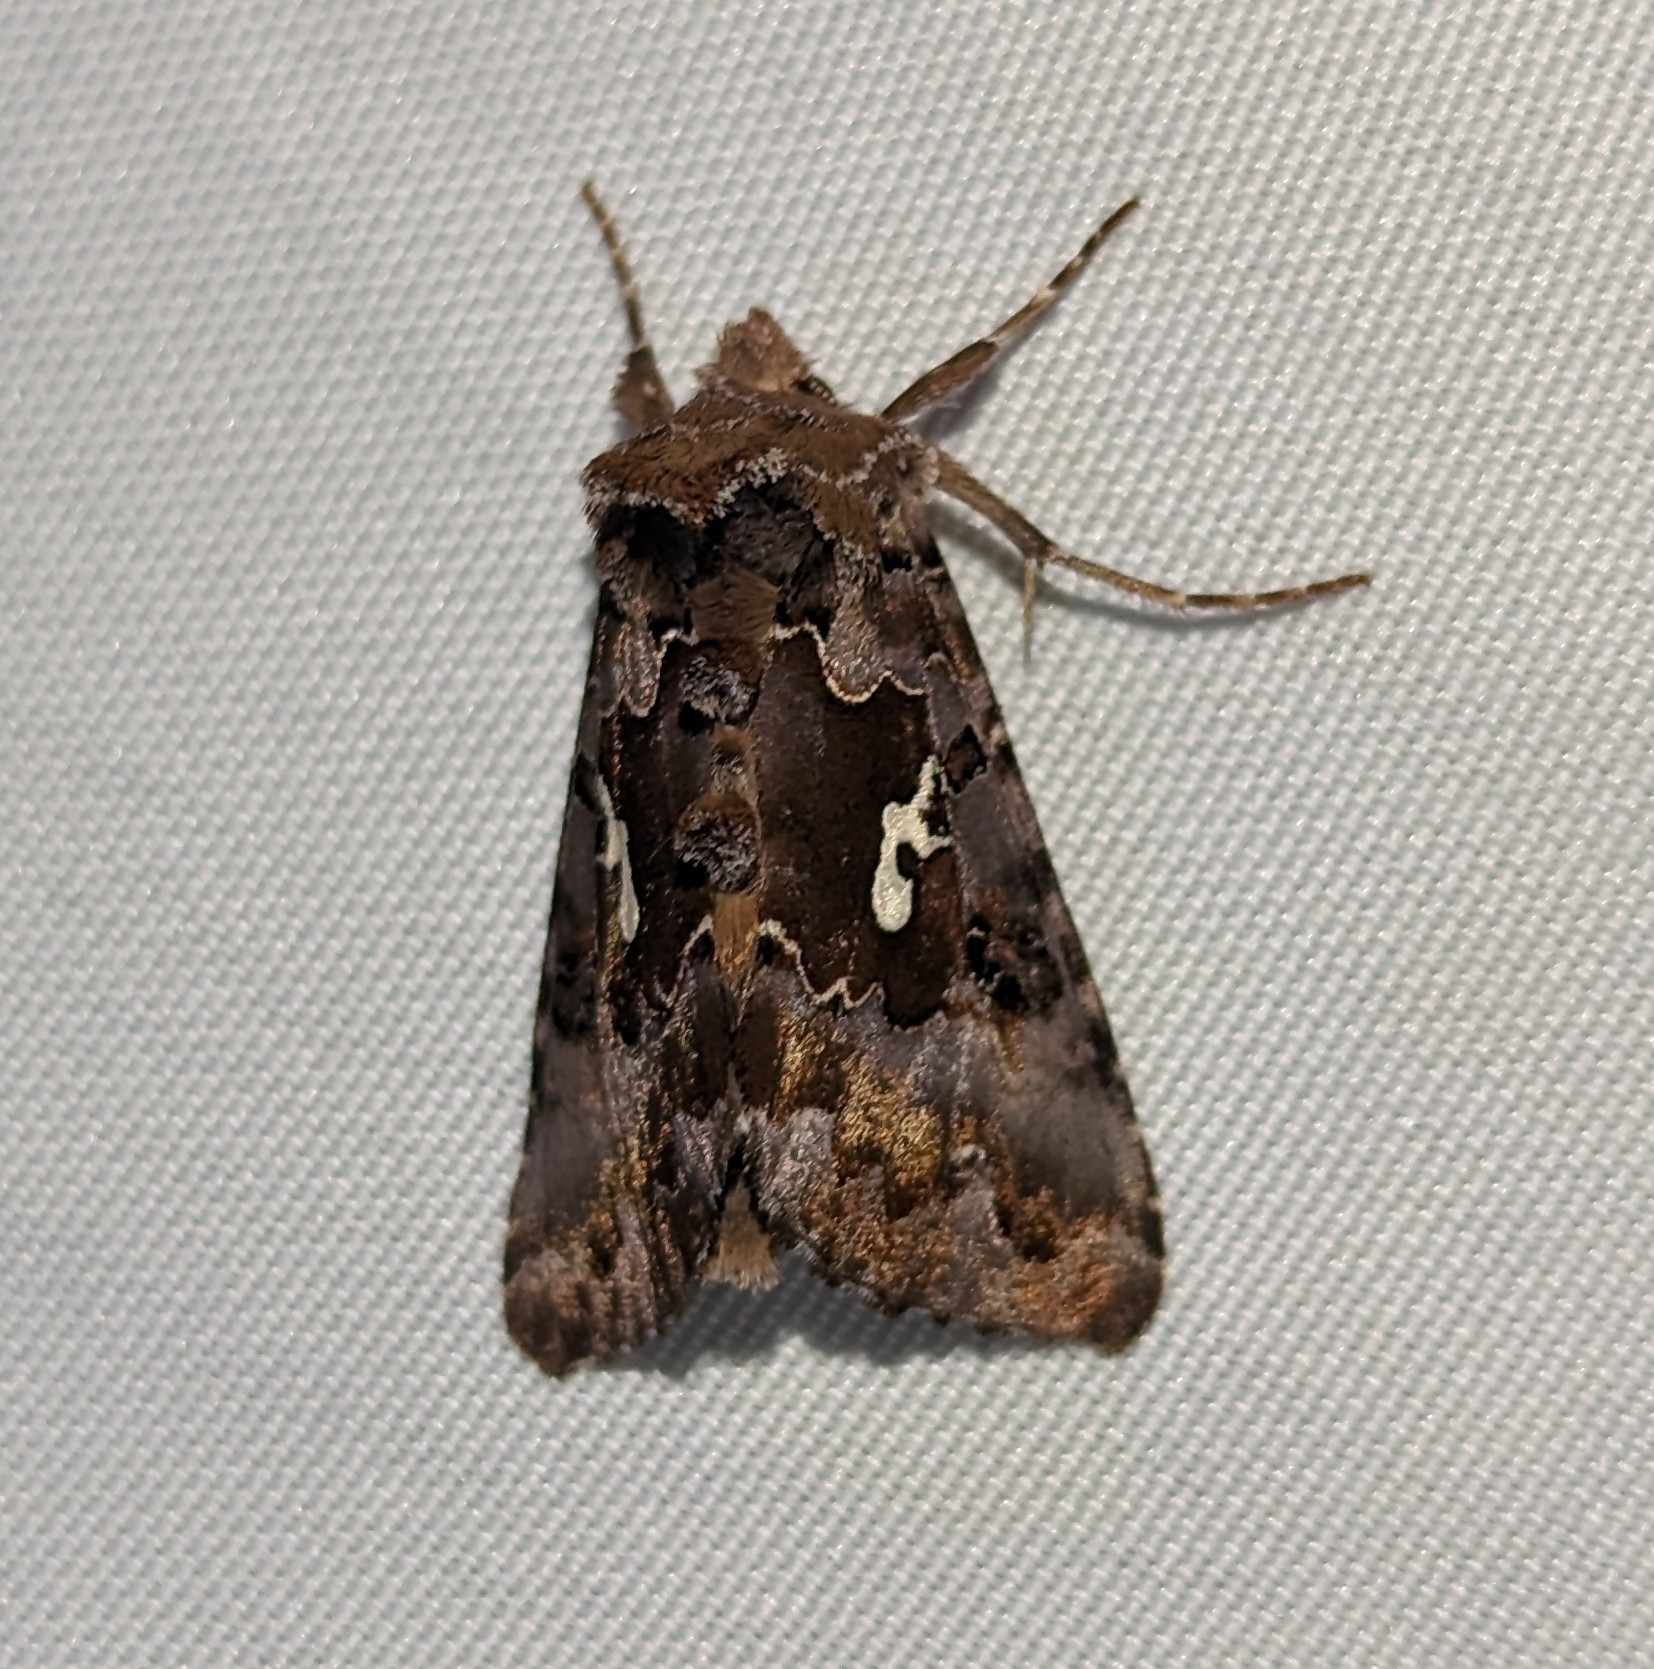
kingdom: Animalia
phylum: Arthropoda
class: Insecta
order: Lepidoptera
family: Noctuidae
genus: Autographa
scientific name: Autographa corusca
